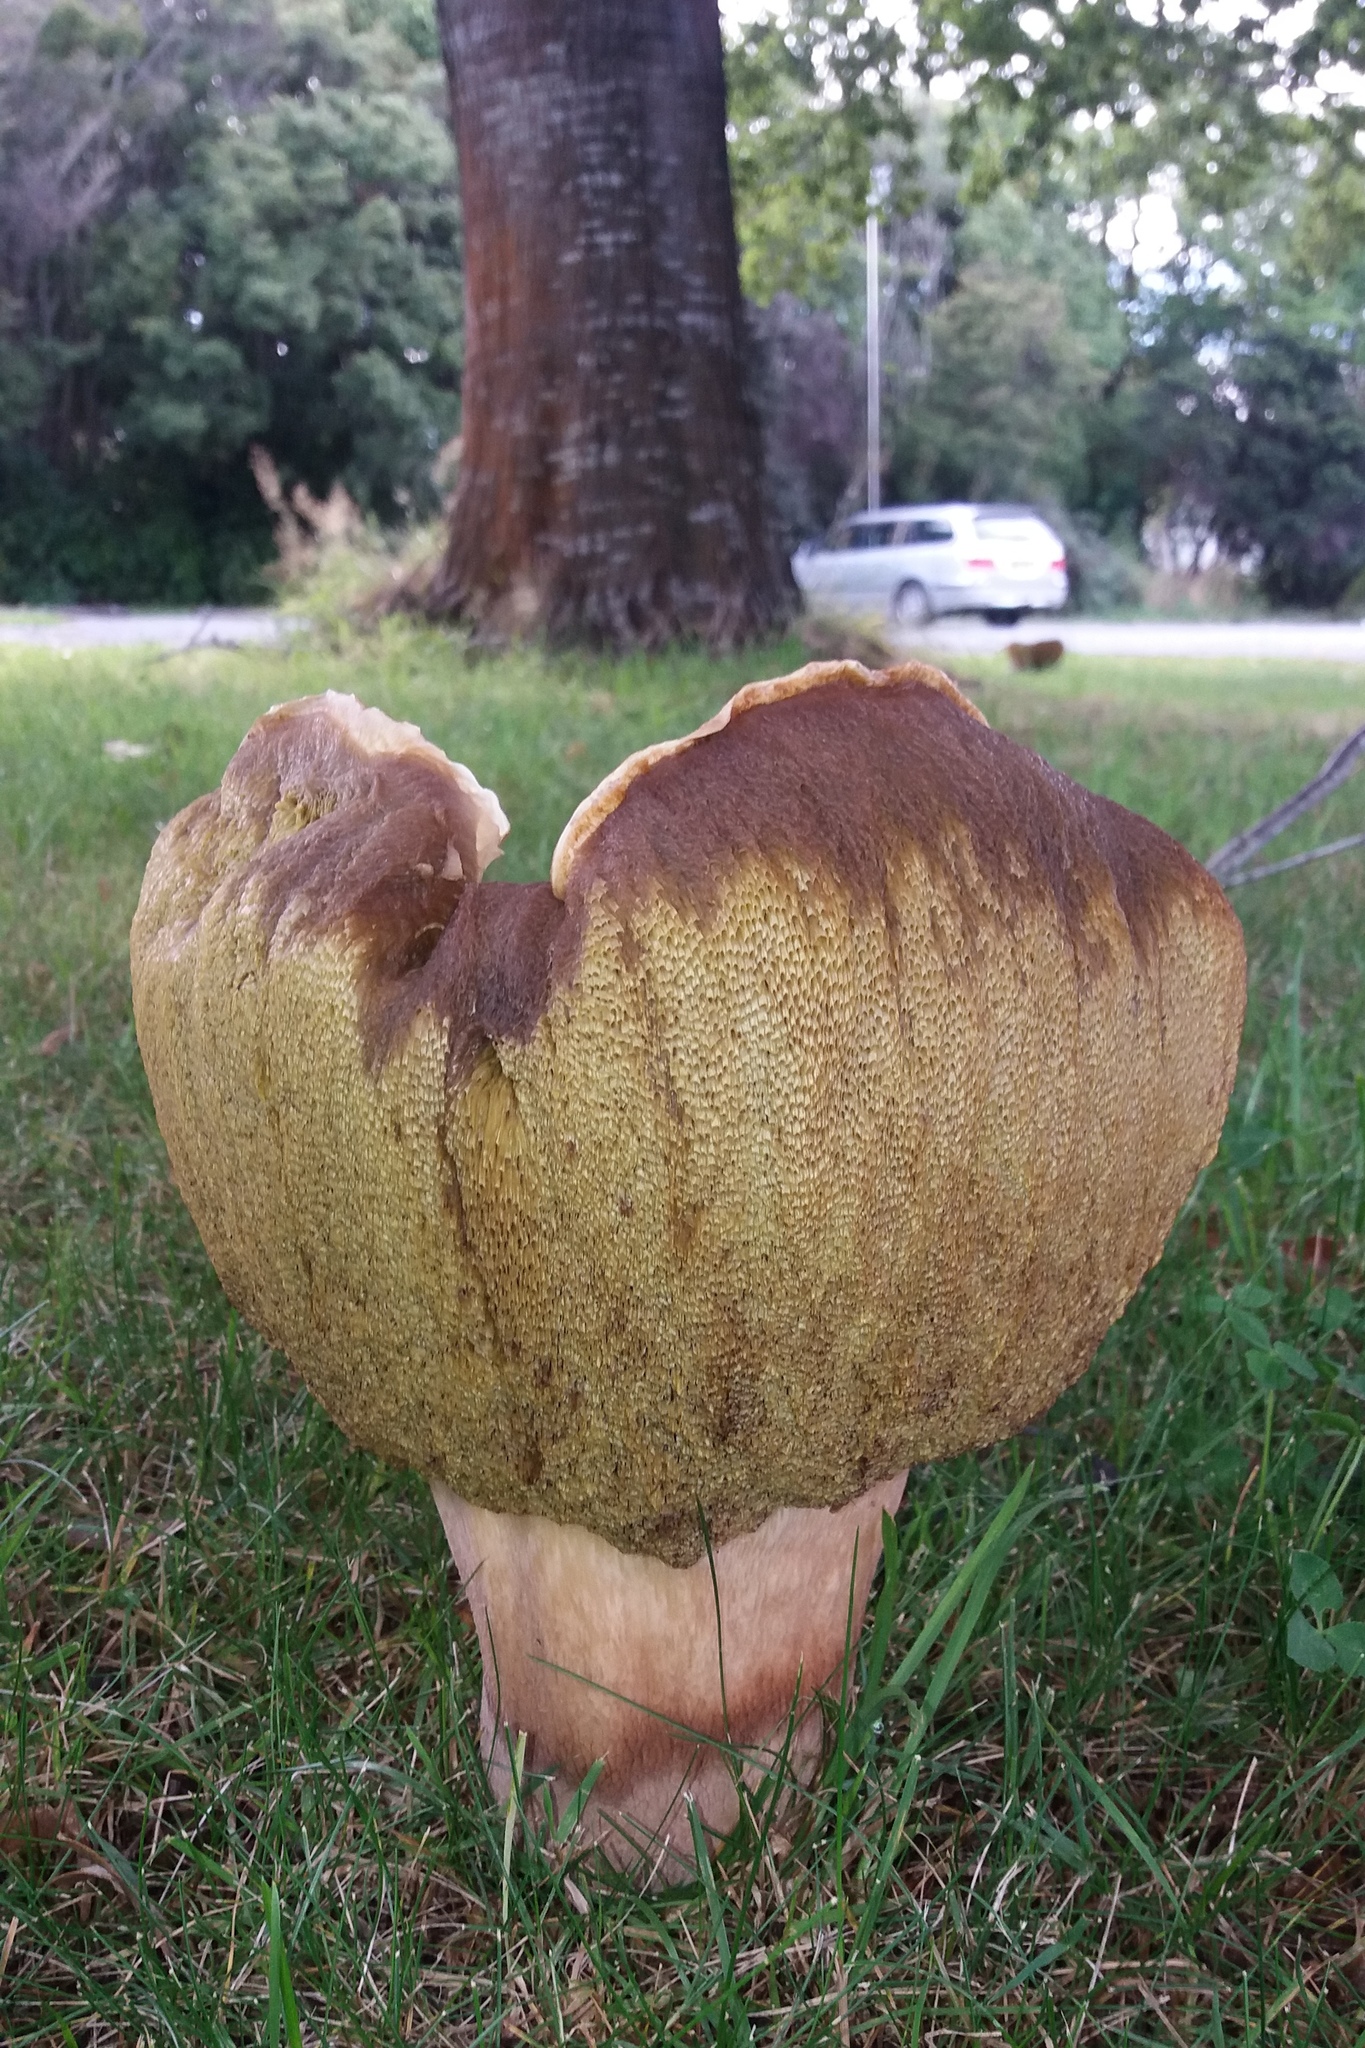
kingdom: Fungi
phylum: Basidiomycota
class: Agaricomycetes
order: Boletales
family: Boletaceae
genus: Boletus
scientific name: Boletus edulis
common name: Cep
